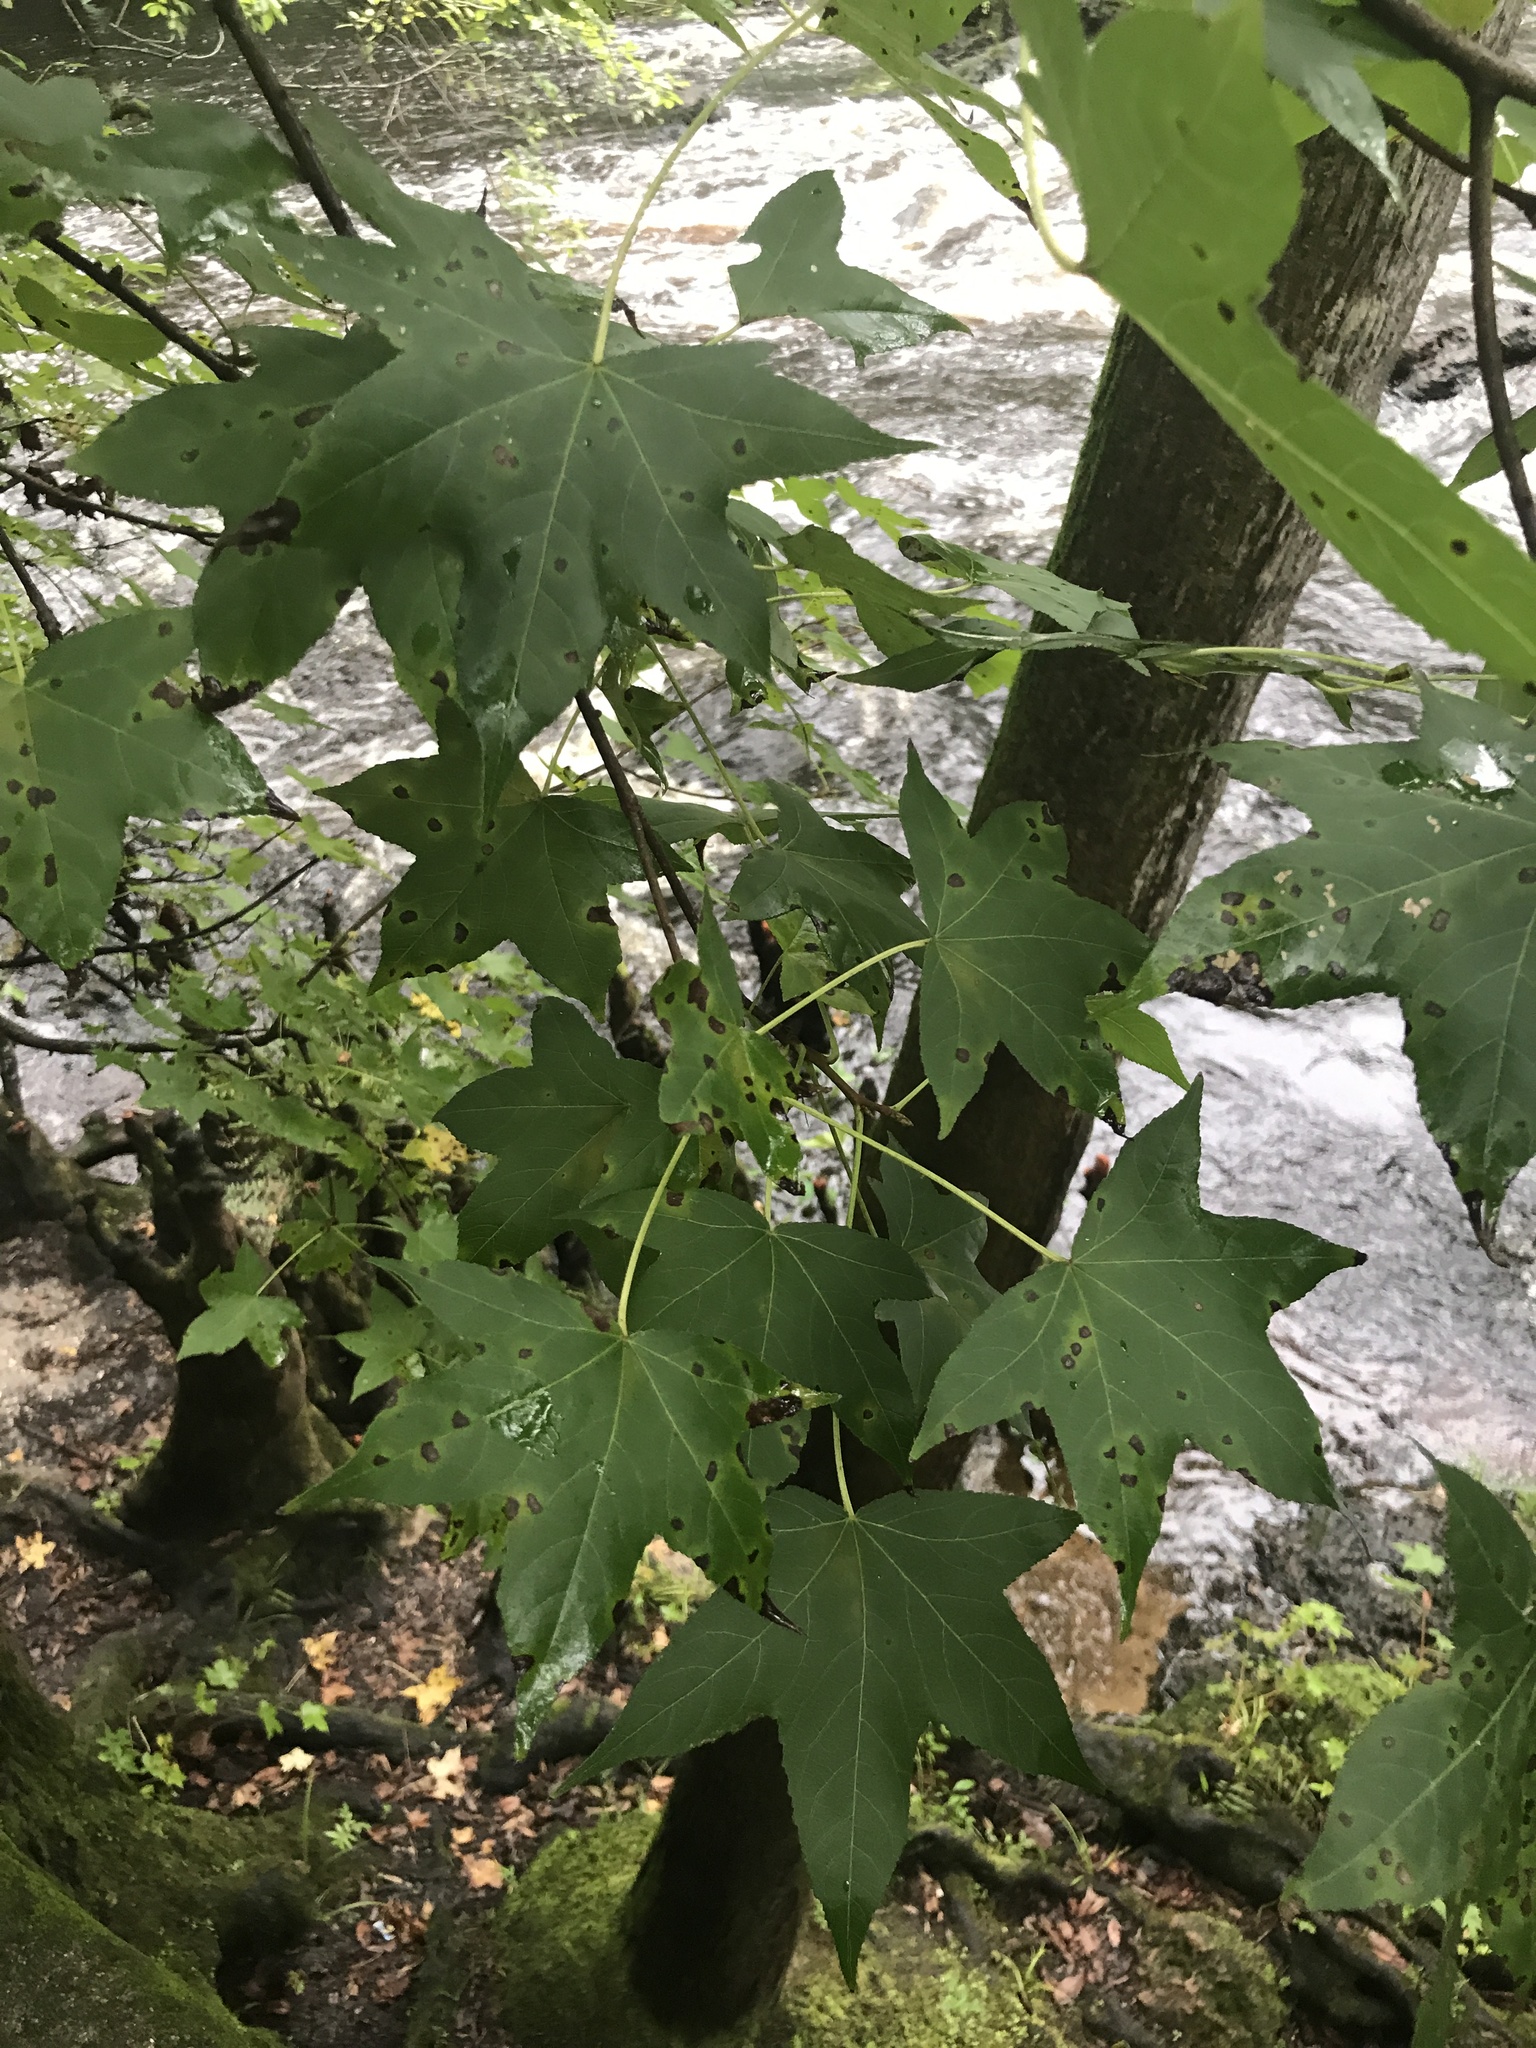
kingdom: Plantae
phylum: Tracheophyta
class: Magnoliopsida
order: Saxifragales
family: Altingiaceae
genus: Liquidambar
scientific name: Liquidambar styraciflua
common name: Sweet gum
